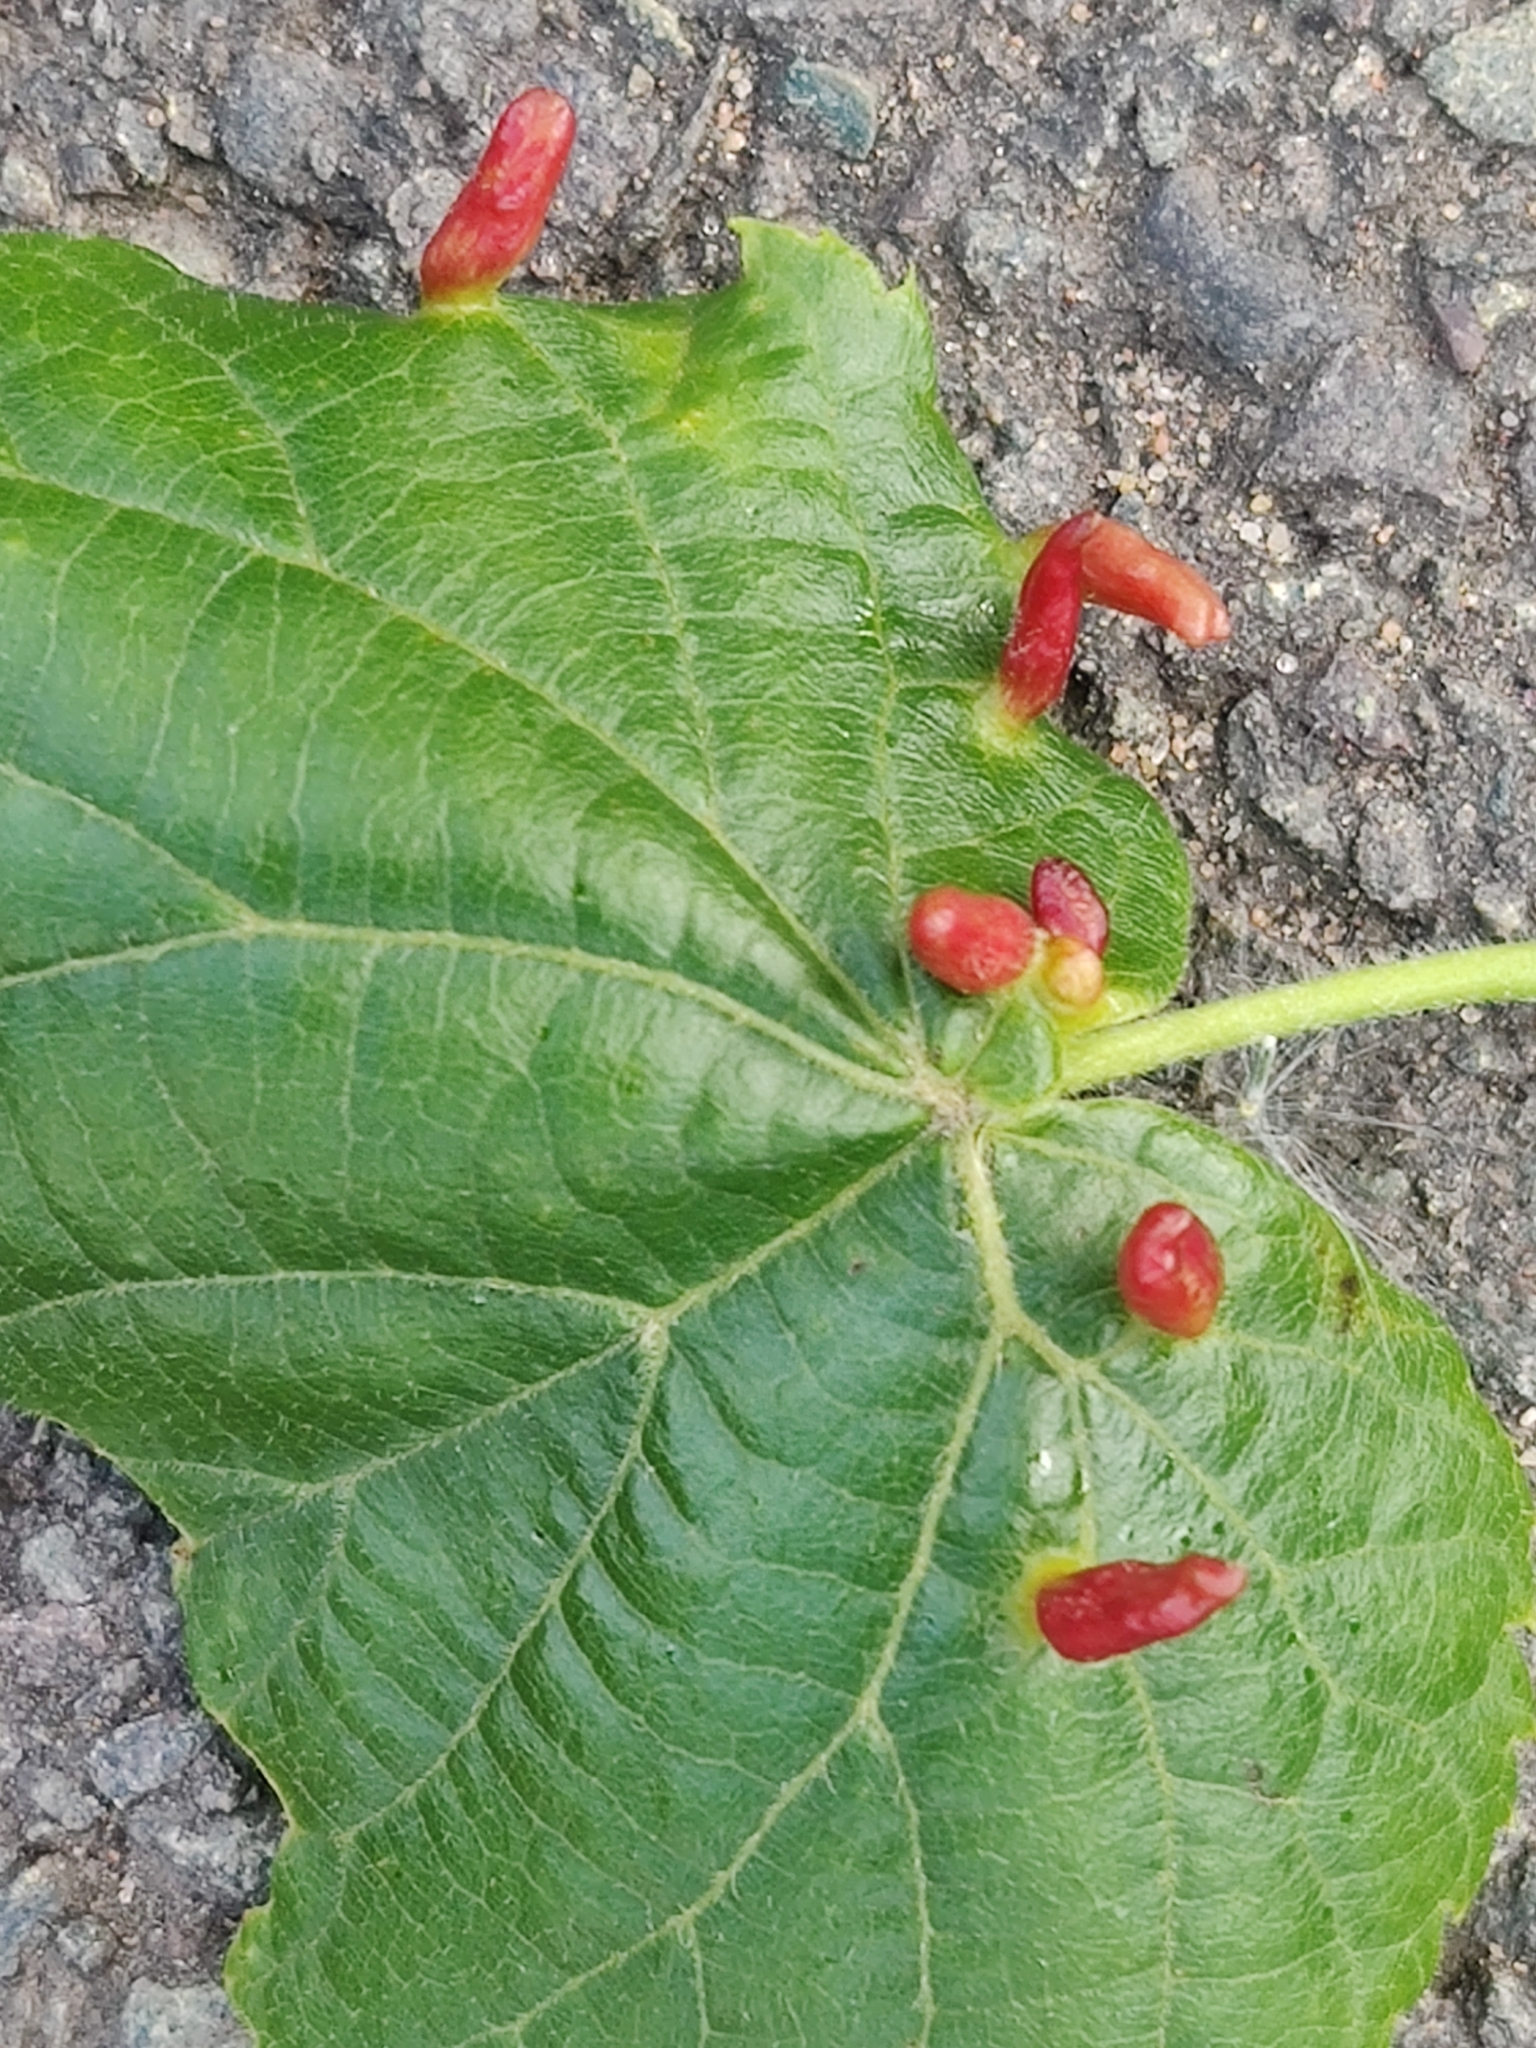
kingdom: Animalia
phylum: Arthropoda
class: Arachnida
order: Trombidiformes
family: Eriophyidae
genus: Eriophyes
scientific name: Eriophyes tiliae
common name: Red nail gall mite
